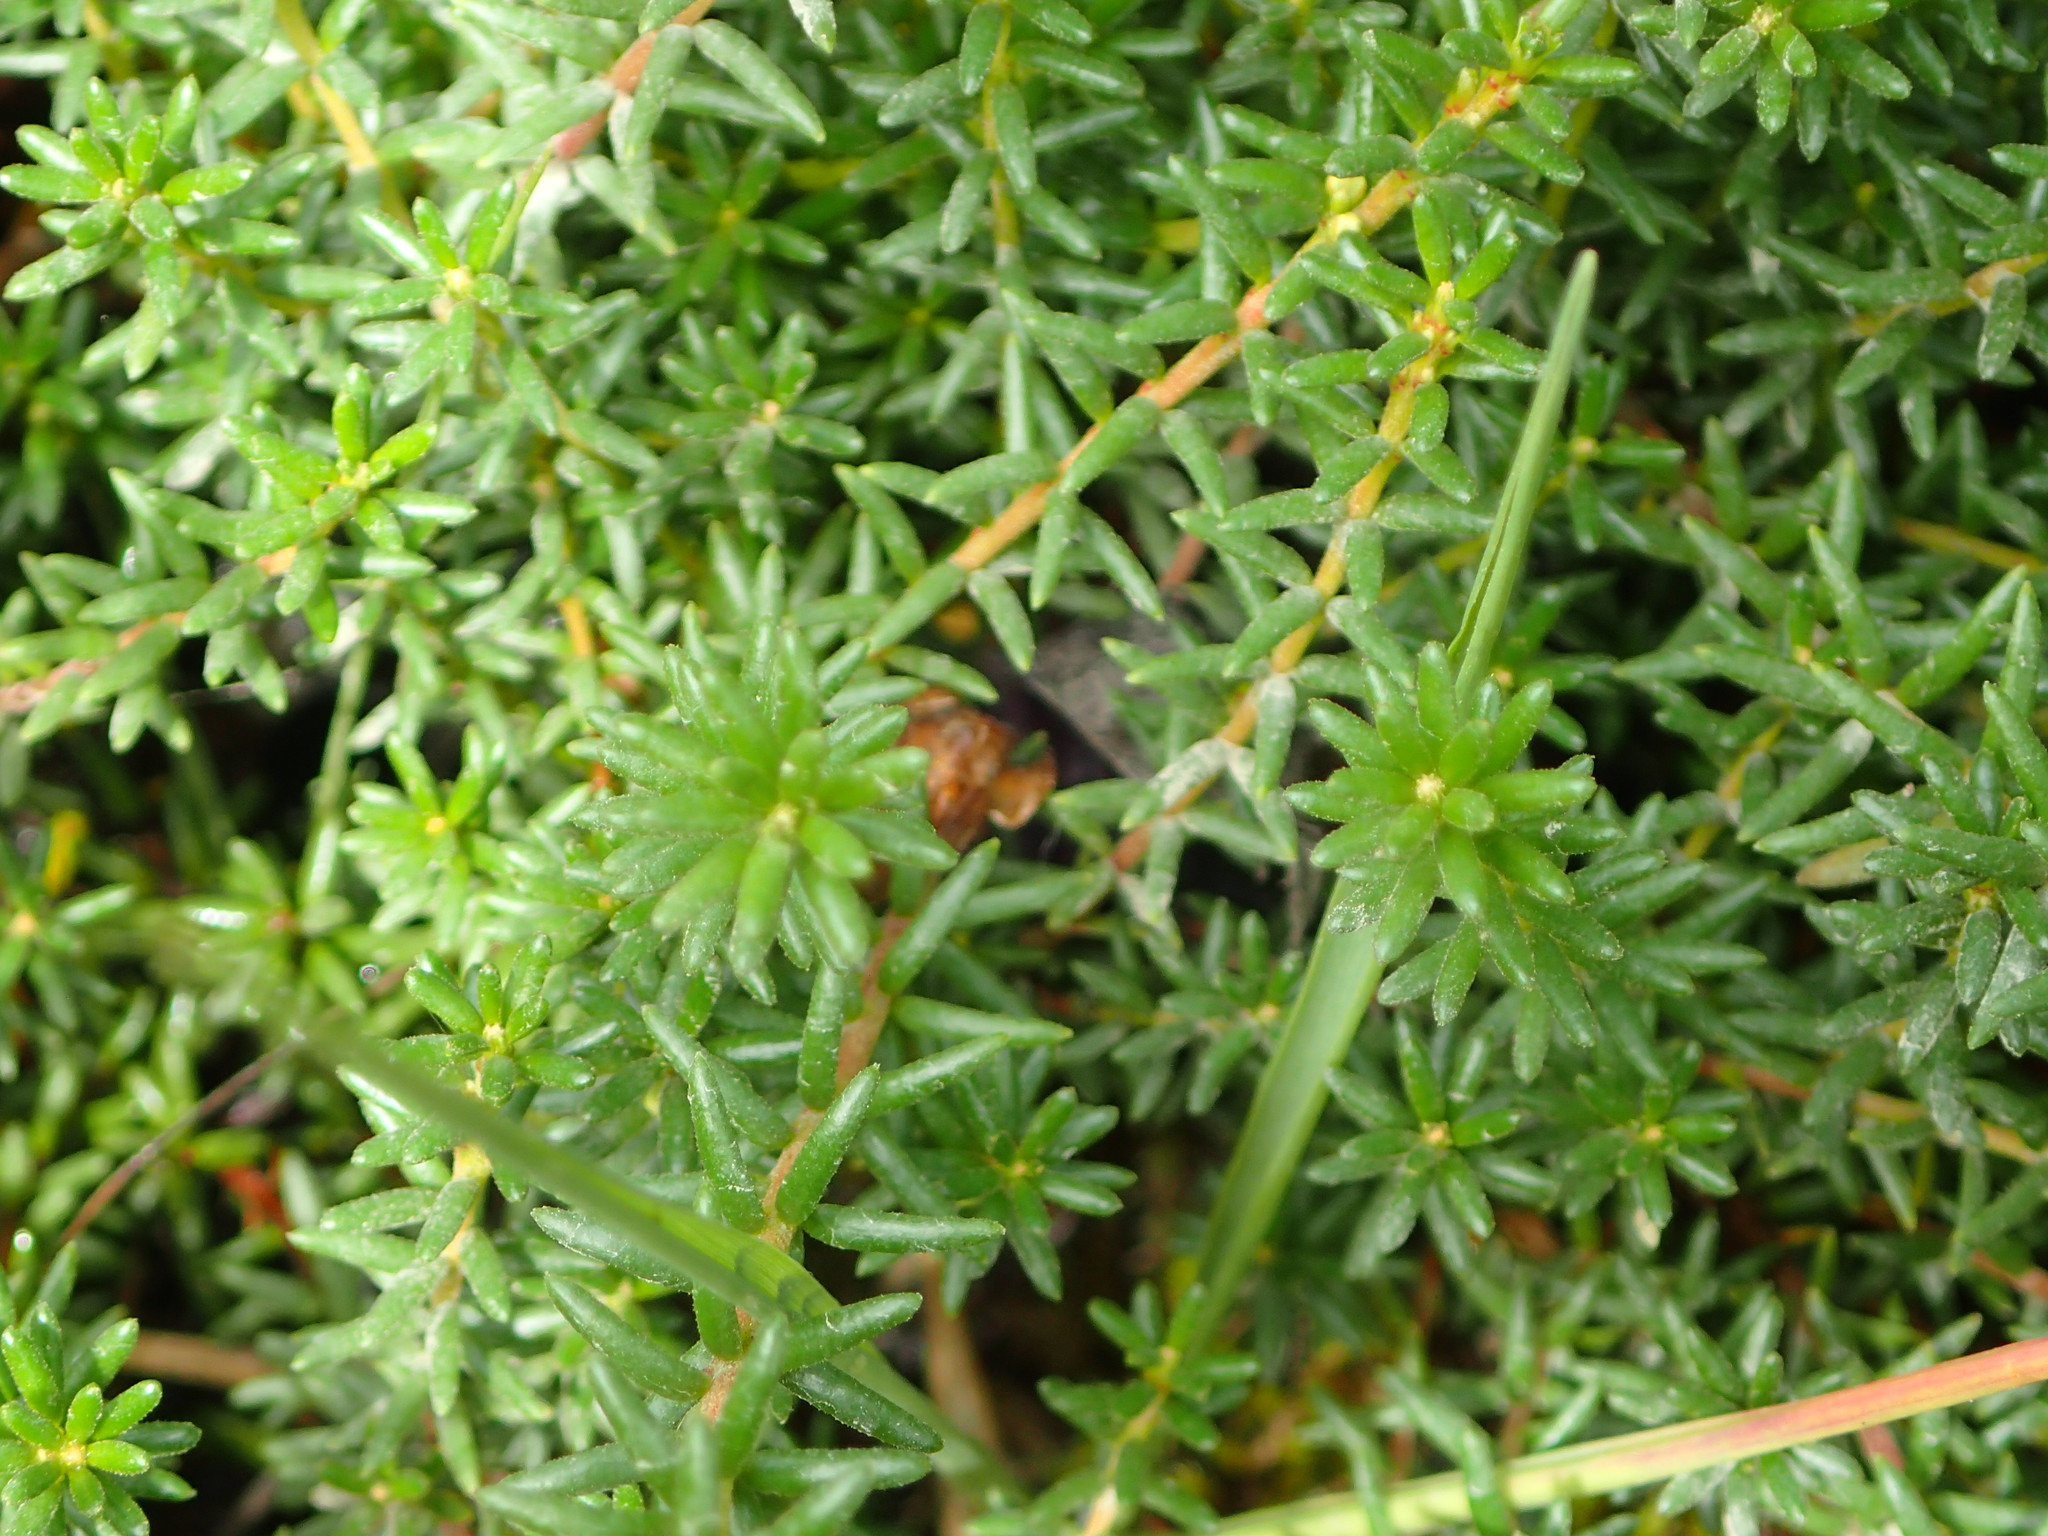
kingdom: Plantae
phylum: Tracheophyta
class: Magnoliopsida
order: Ericales
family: Ericaceae
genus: Empetrum
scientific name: Empetrum nigrum
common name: Black crowberry
